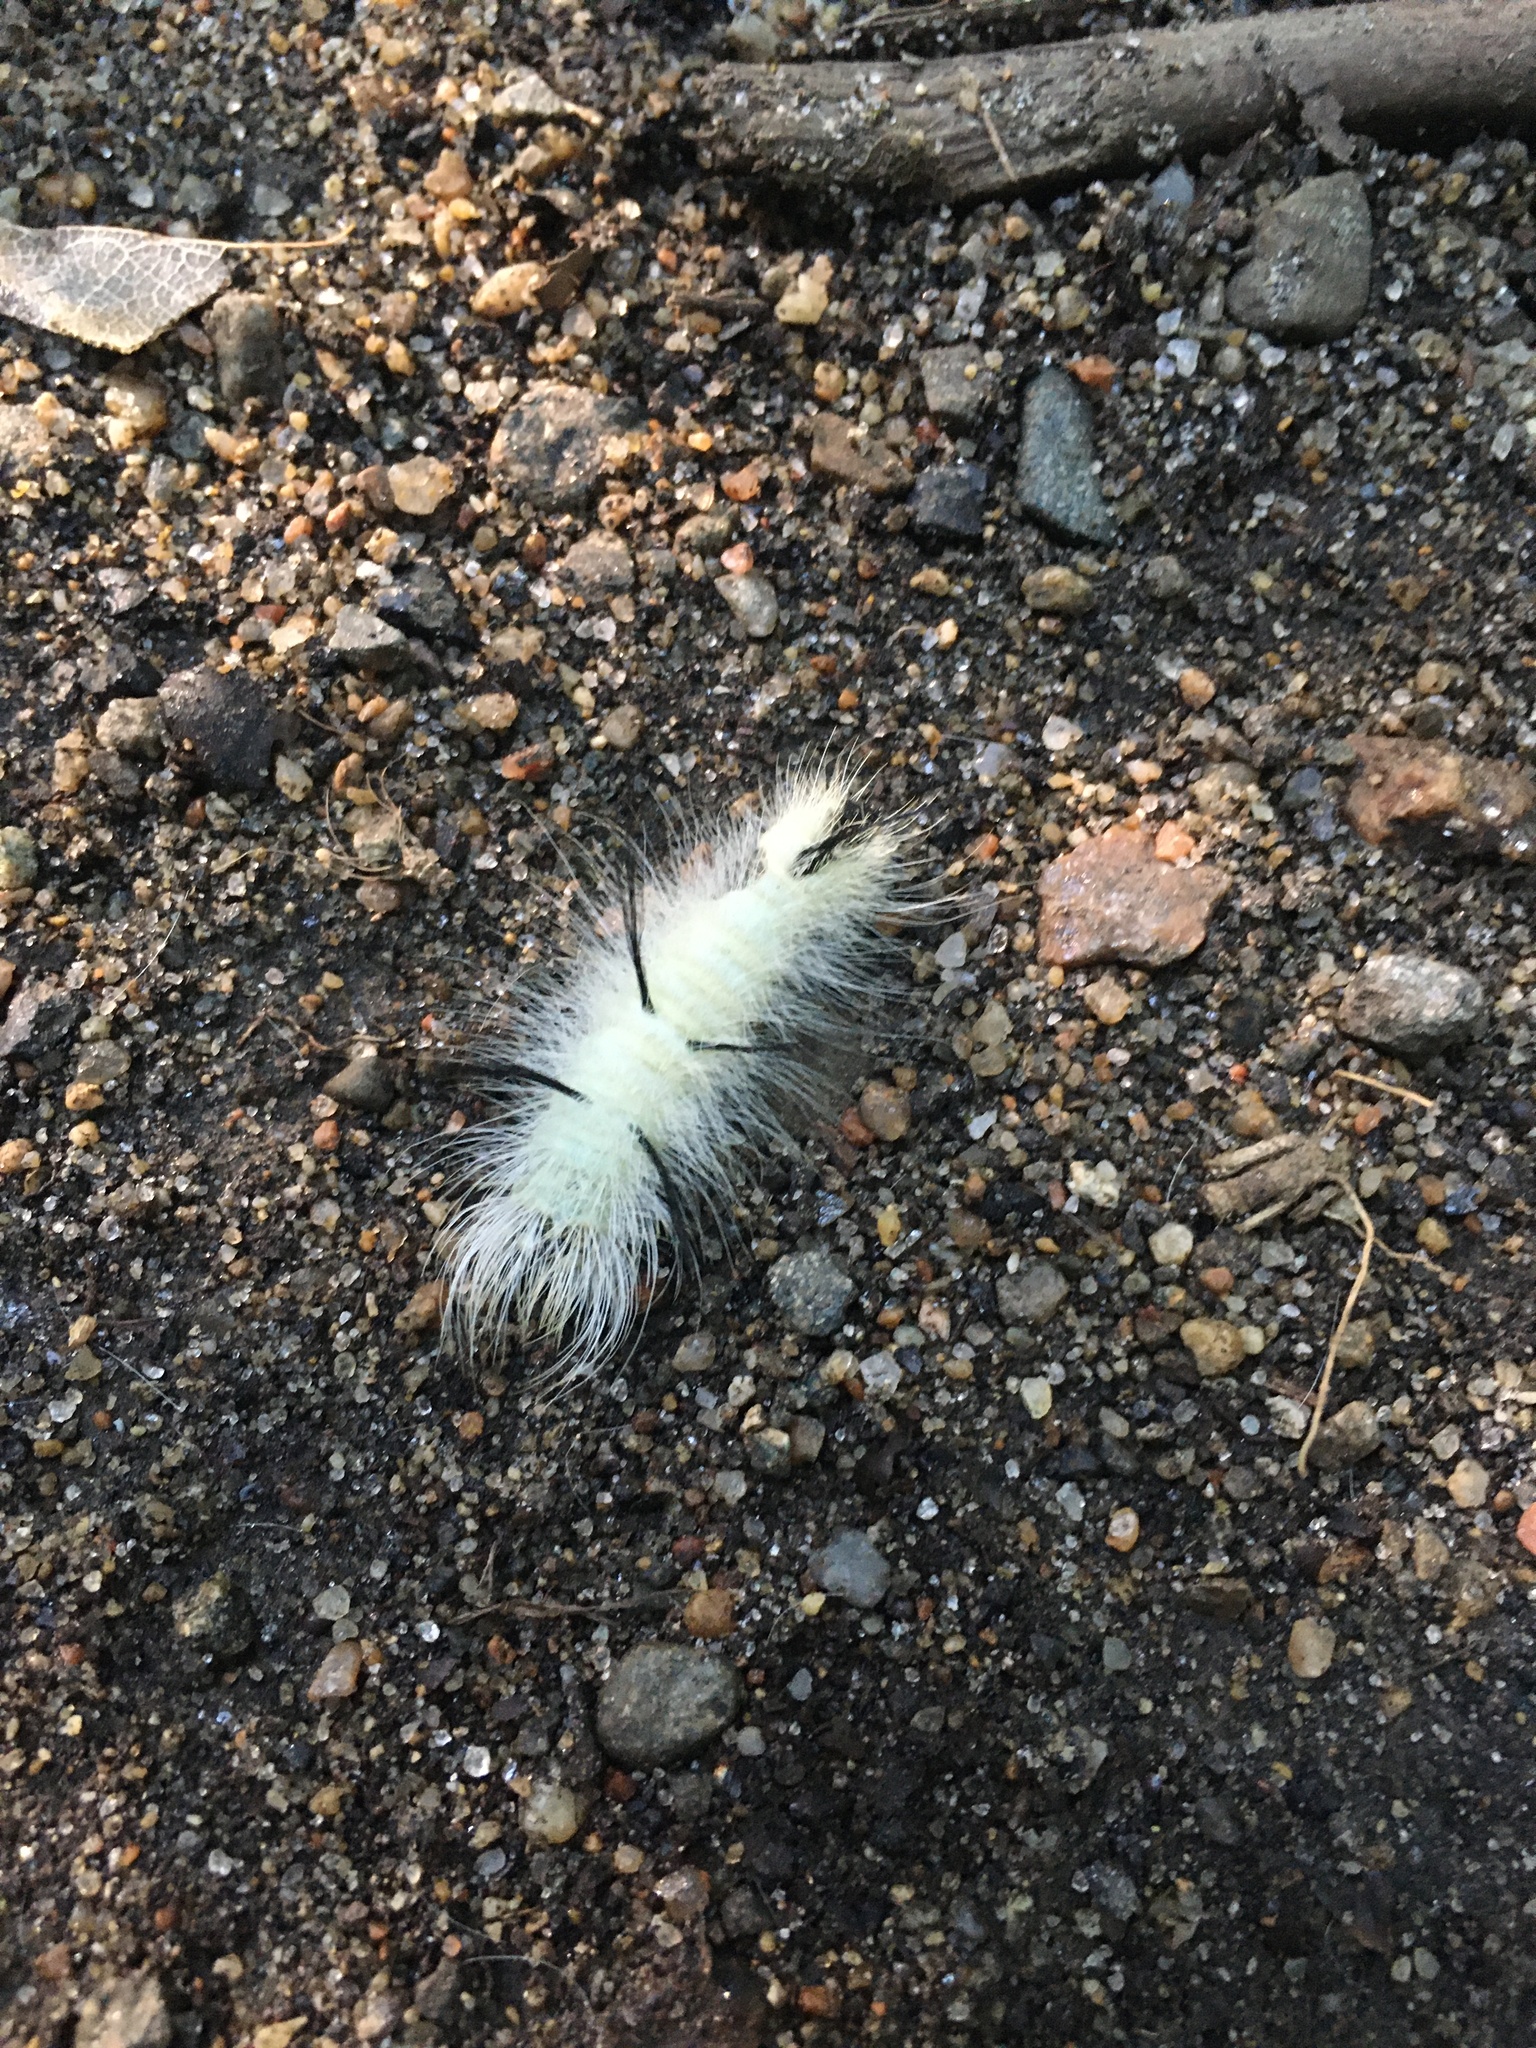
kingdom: Animalia
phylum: Arthropoda
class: Insecta
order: Lepidoptera
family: Noctuidae
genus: Acronicta
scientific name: Acronicta americana
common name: American dagger
